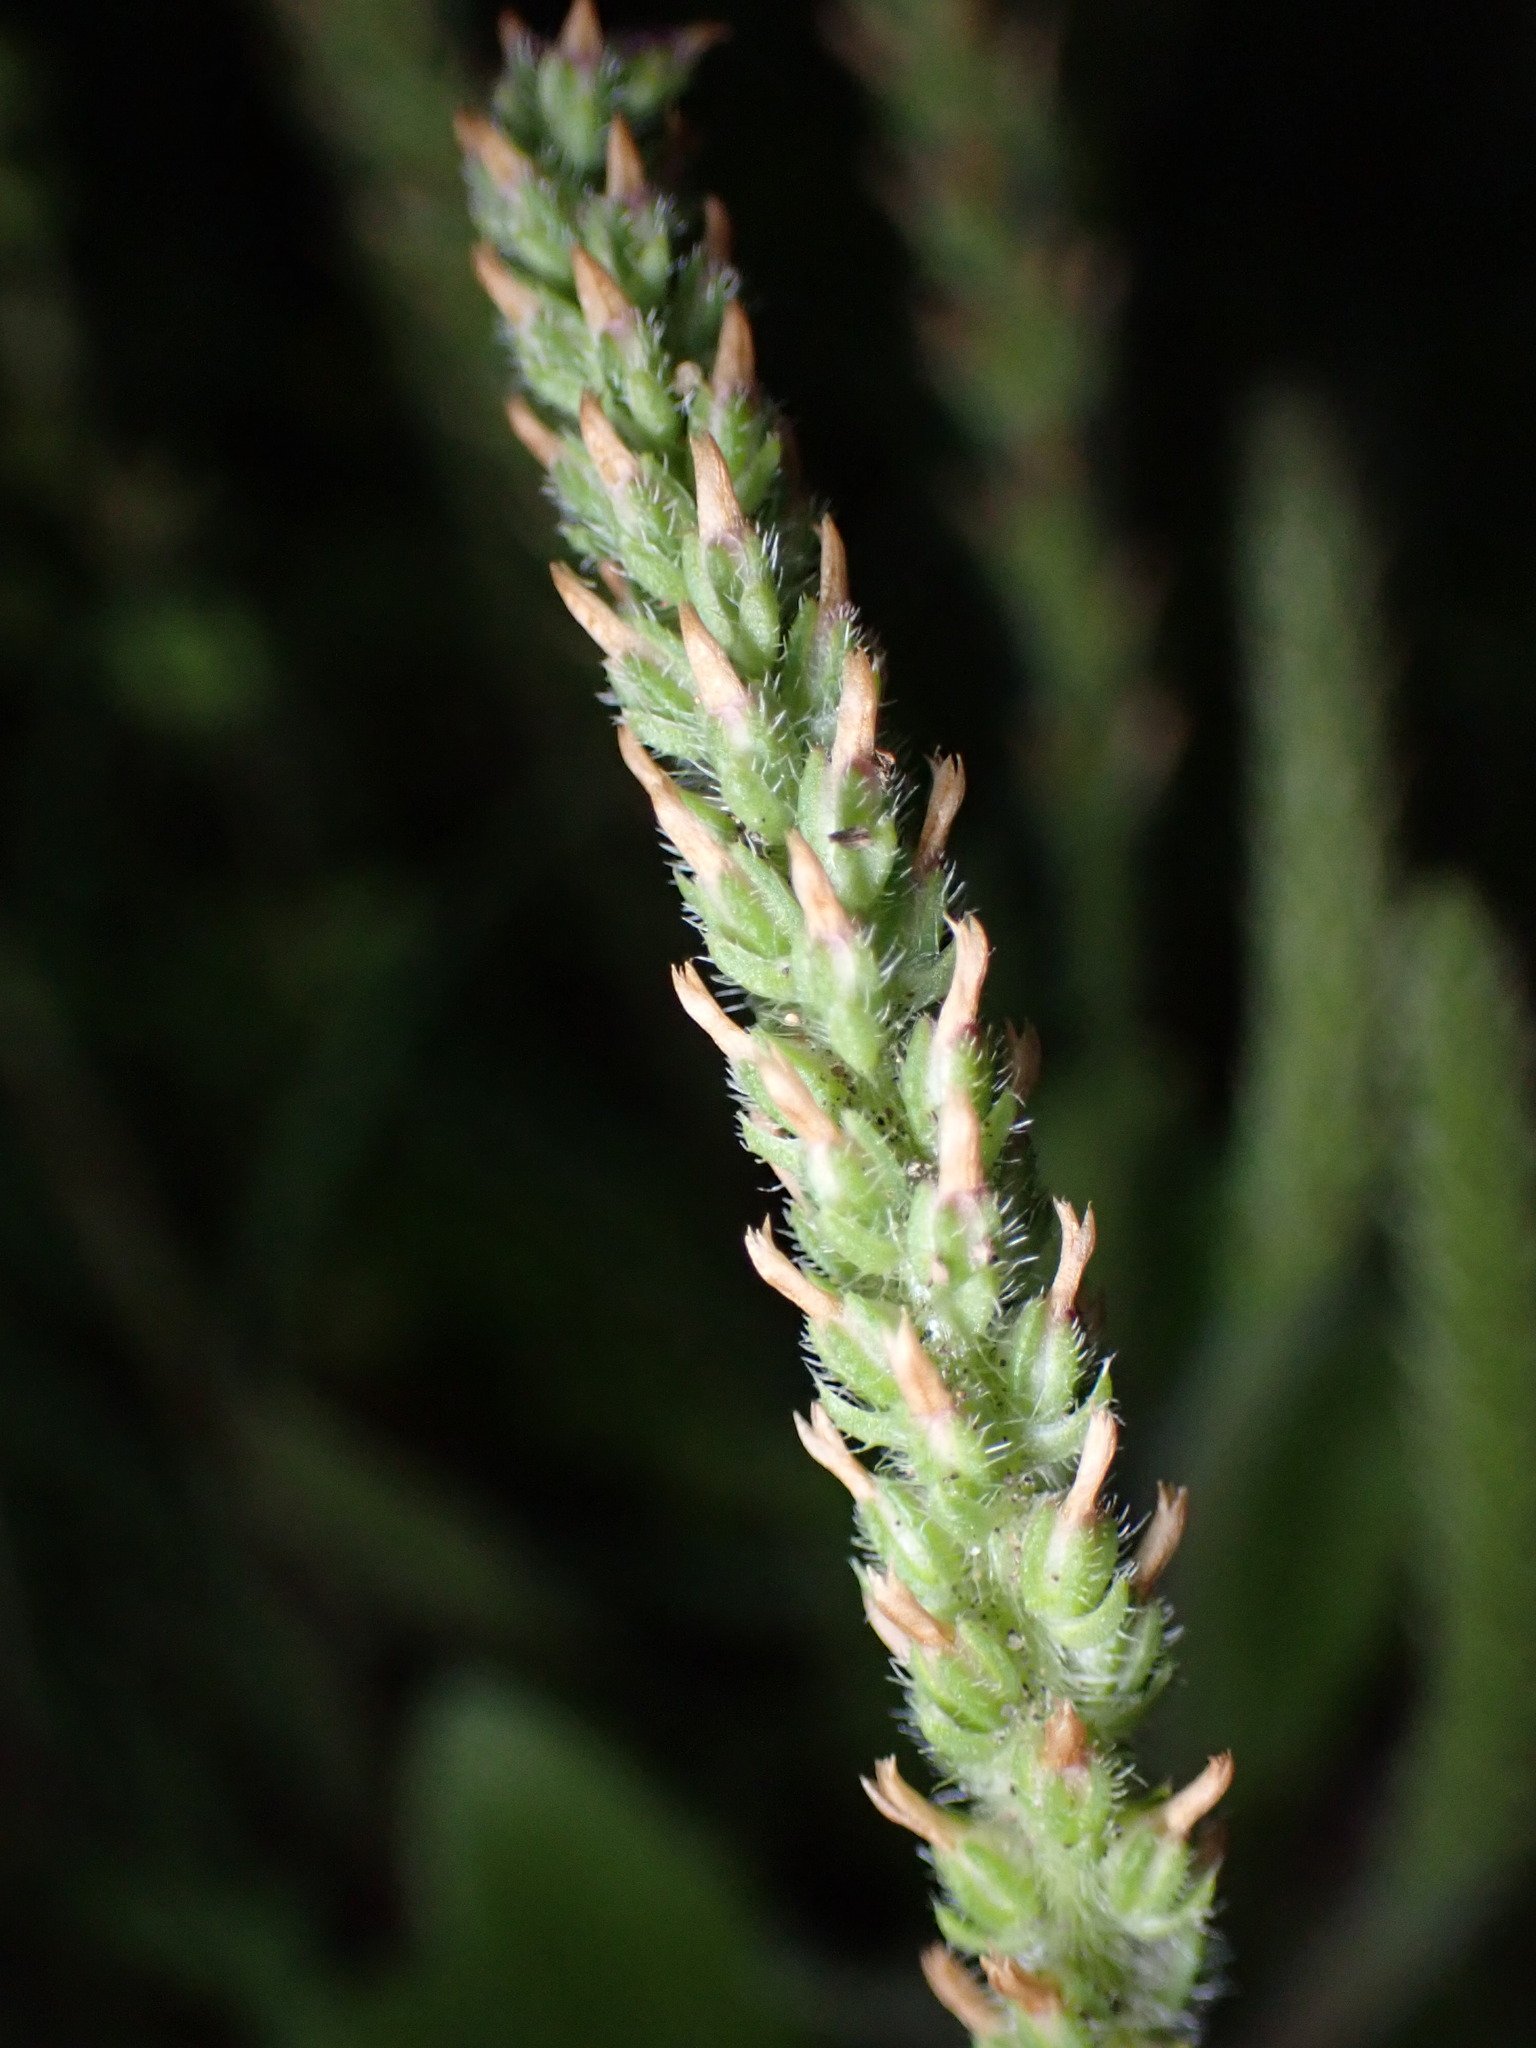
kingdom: Plantae
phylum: Tracheophyta
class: Magnoliopsida
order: Lamiales
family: Plantaginaceae
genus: Plantago
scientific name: Plantago virginica
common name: Hoary plantain
